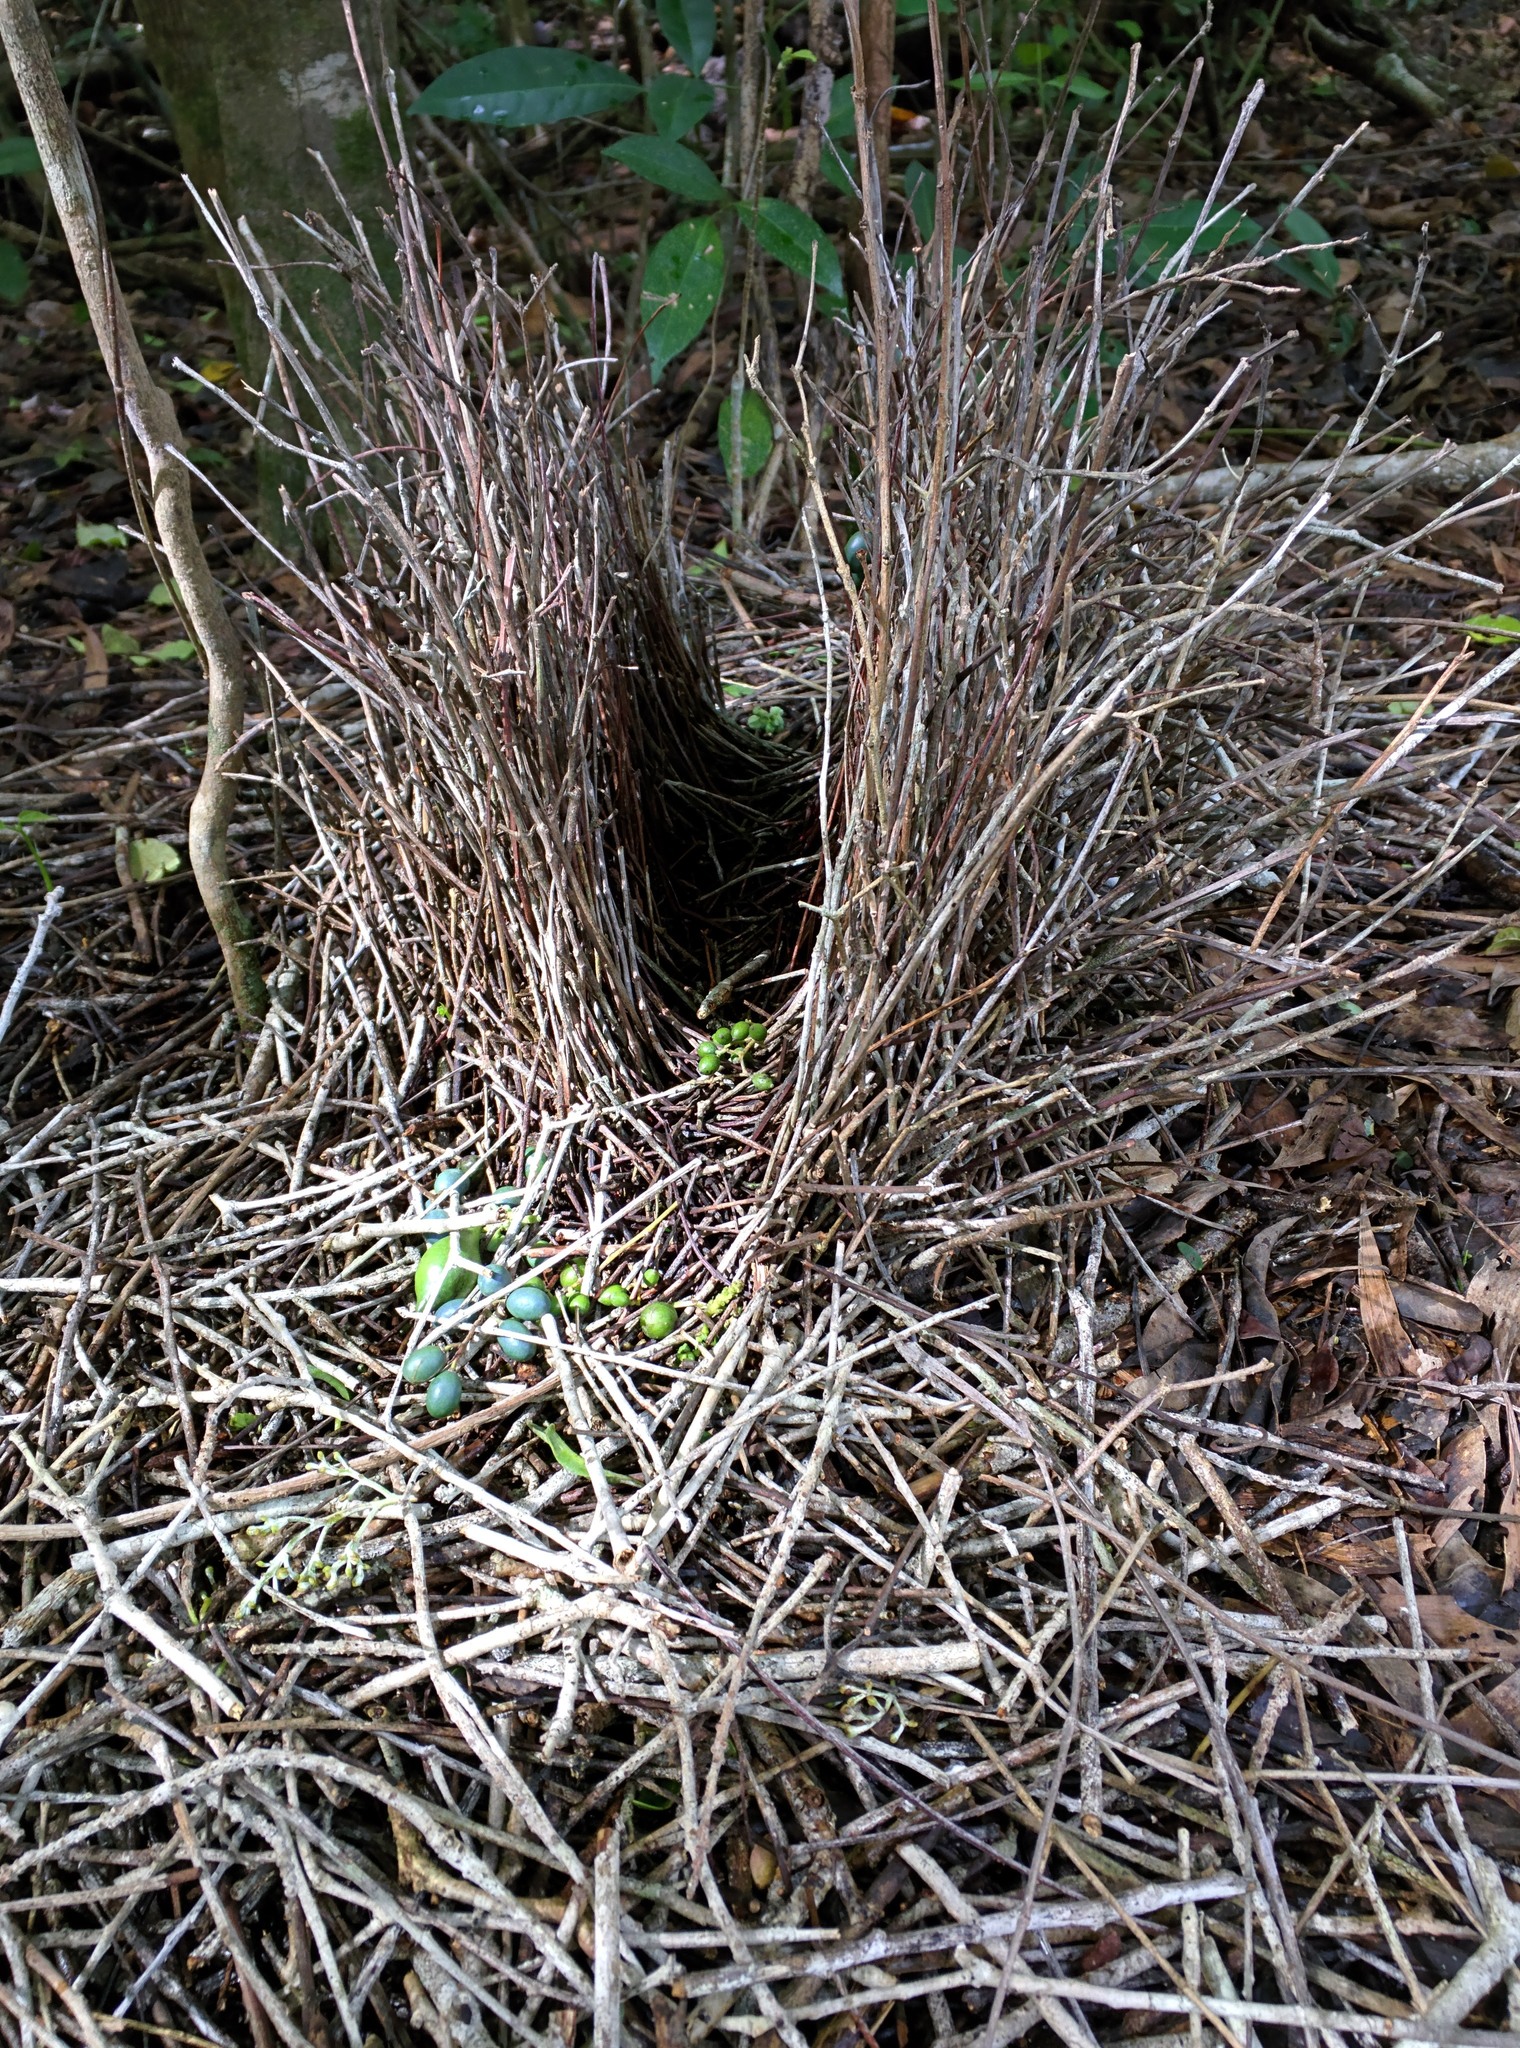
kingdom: Animalia
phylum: Chordata
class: Aves
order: Passeriformes
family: Ptilonorhynchidae
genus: Chlamydera
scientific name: Chlamydera cerviniventris
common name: Fawn-breasted bowerbird
